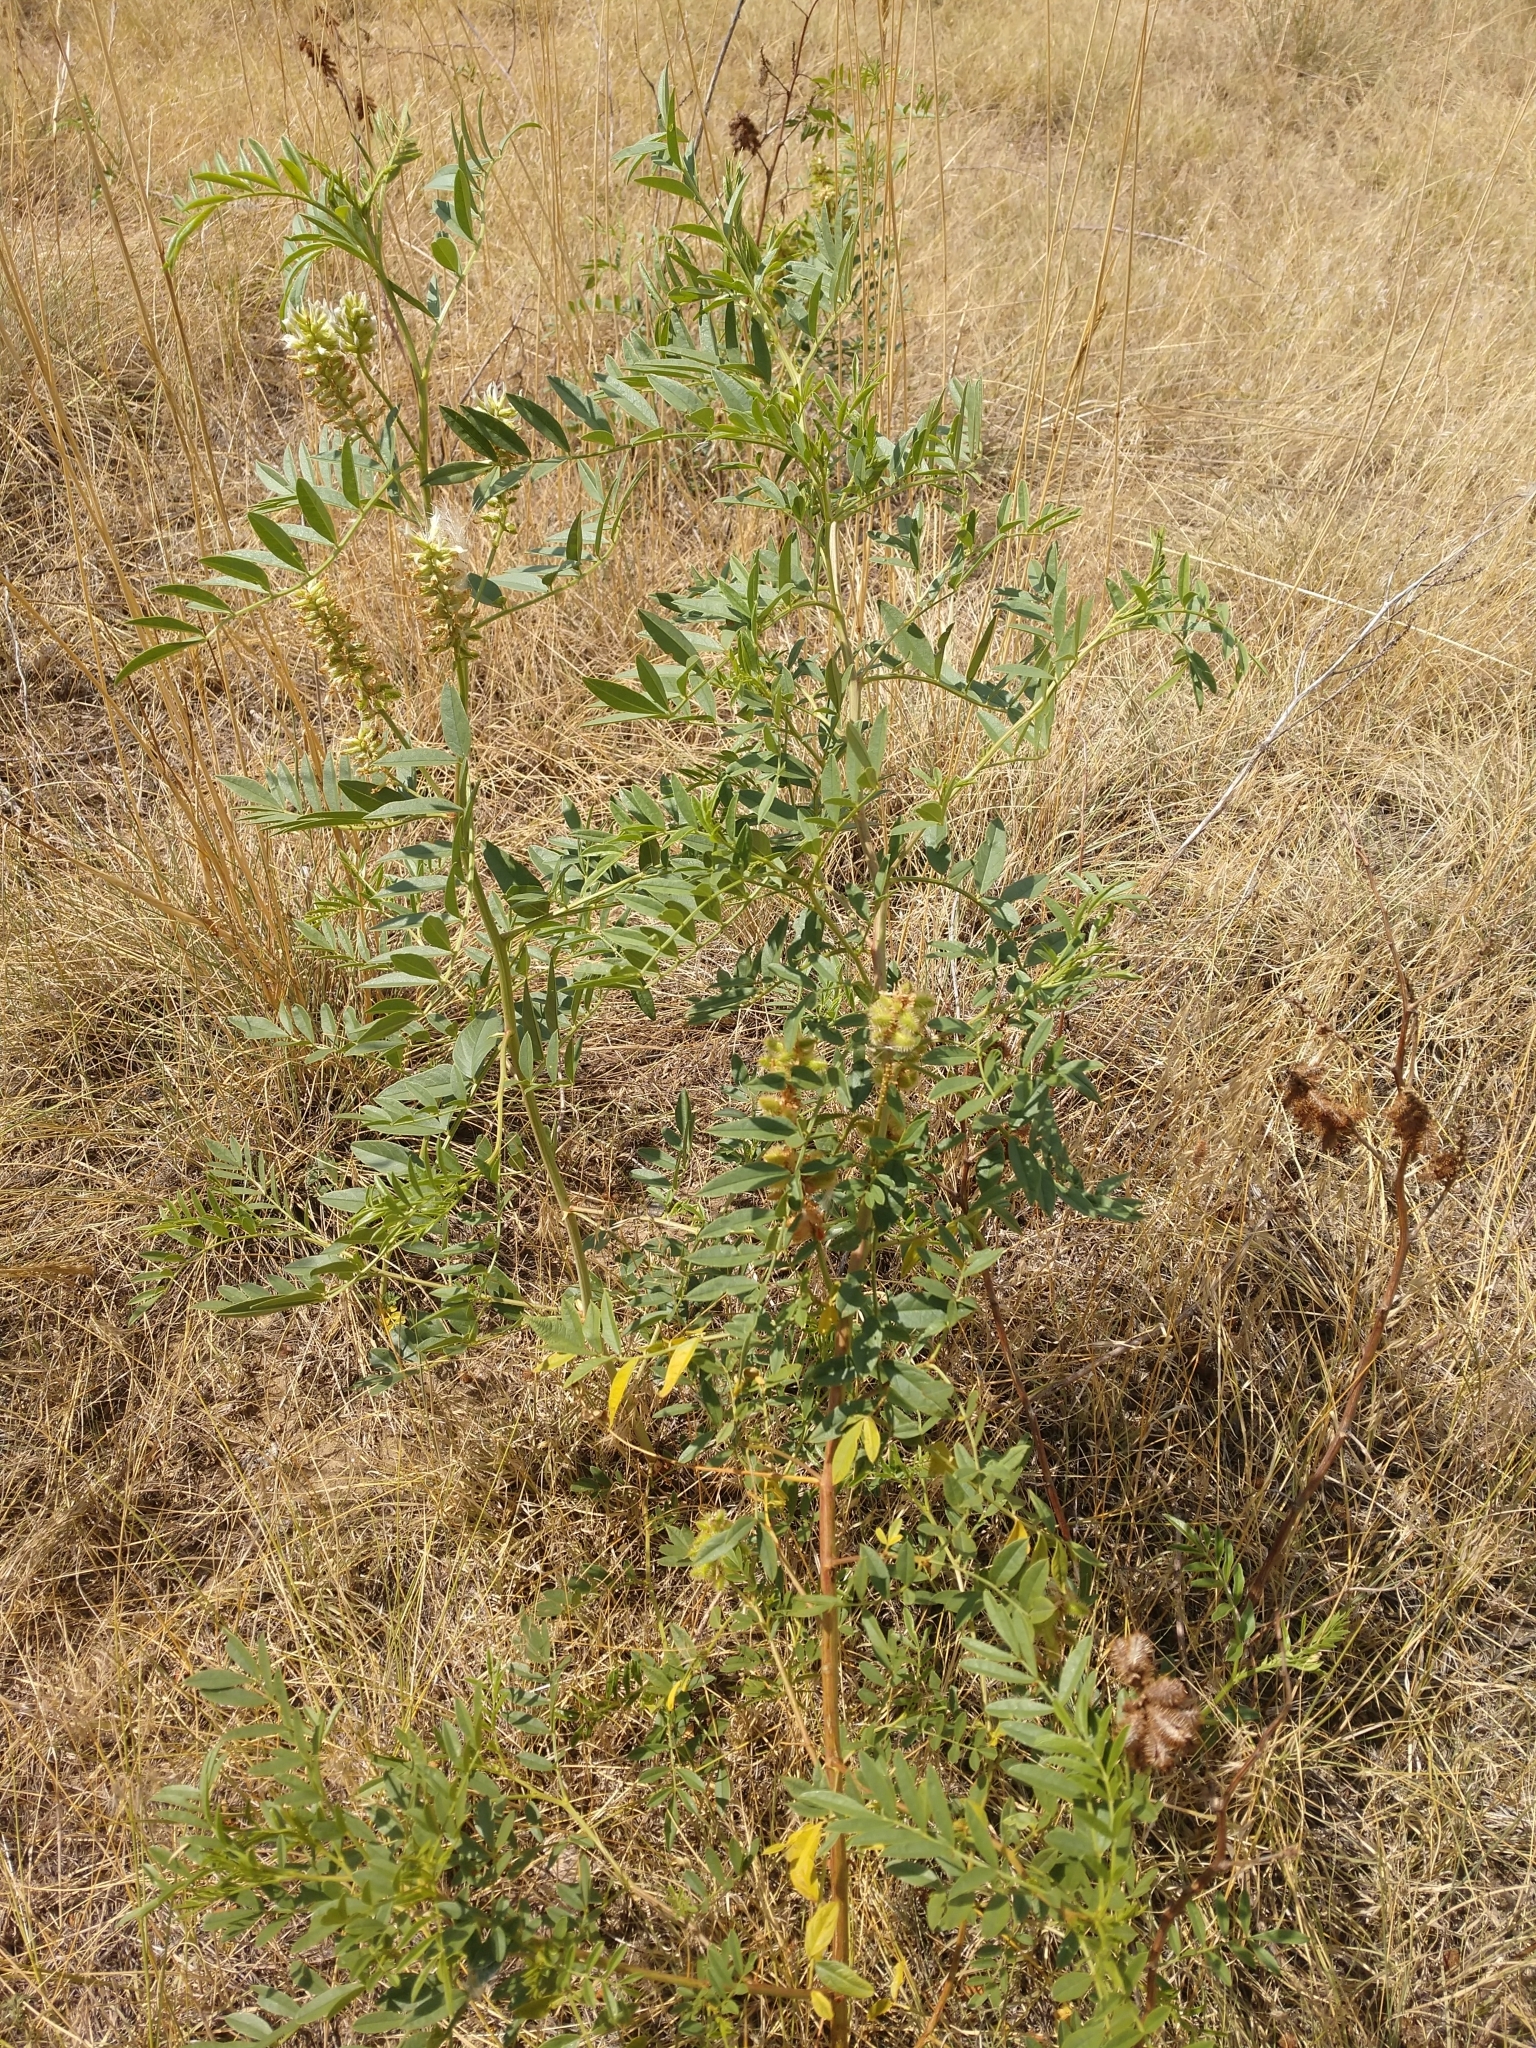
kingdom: Plantae
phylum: Tracheophyta
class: Magnoliopsida
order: Fabales
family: Fabaceae
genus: Glycyrrhiza
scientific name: Glycyrrhiza lepidota
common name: American liquorice
